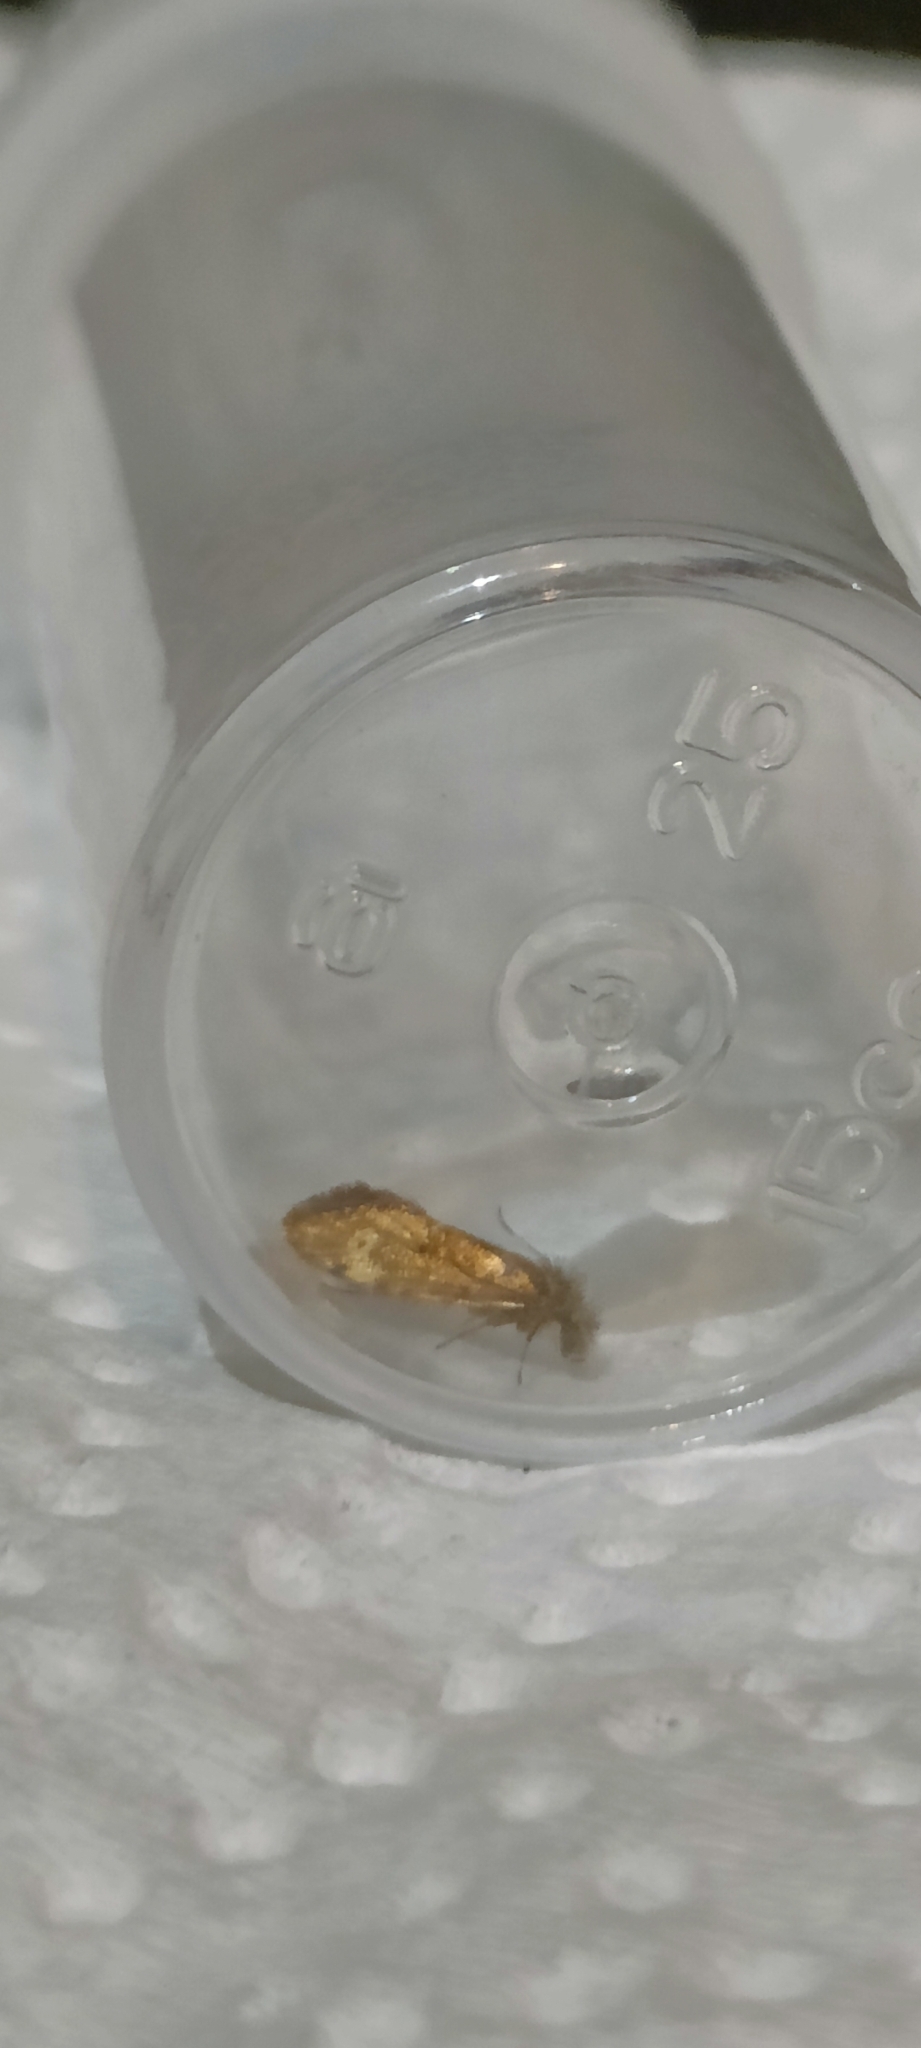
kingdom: Animalia
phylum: Arthropoda
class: Insecta
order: Lepidoptera
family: Eriocraniidae
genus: Dyseriocrania
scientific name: Dyseriocrania subpurpurella
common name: Common oak purple
